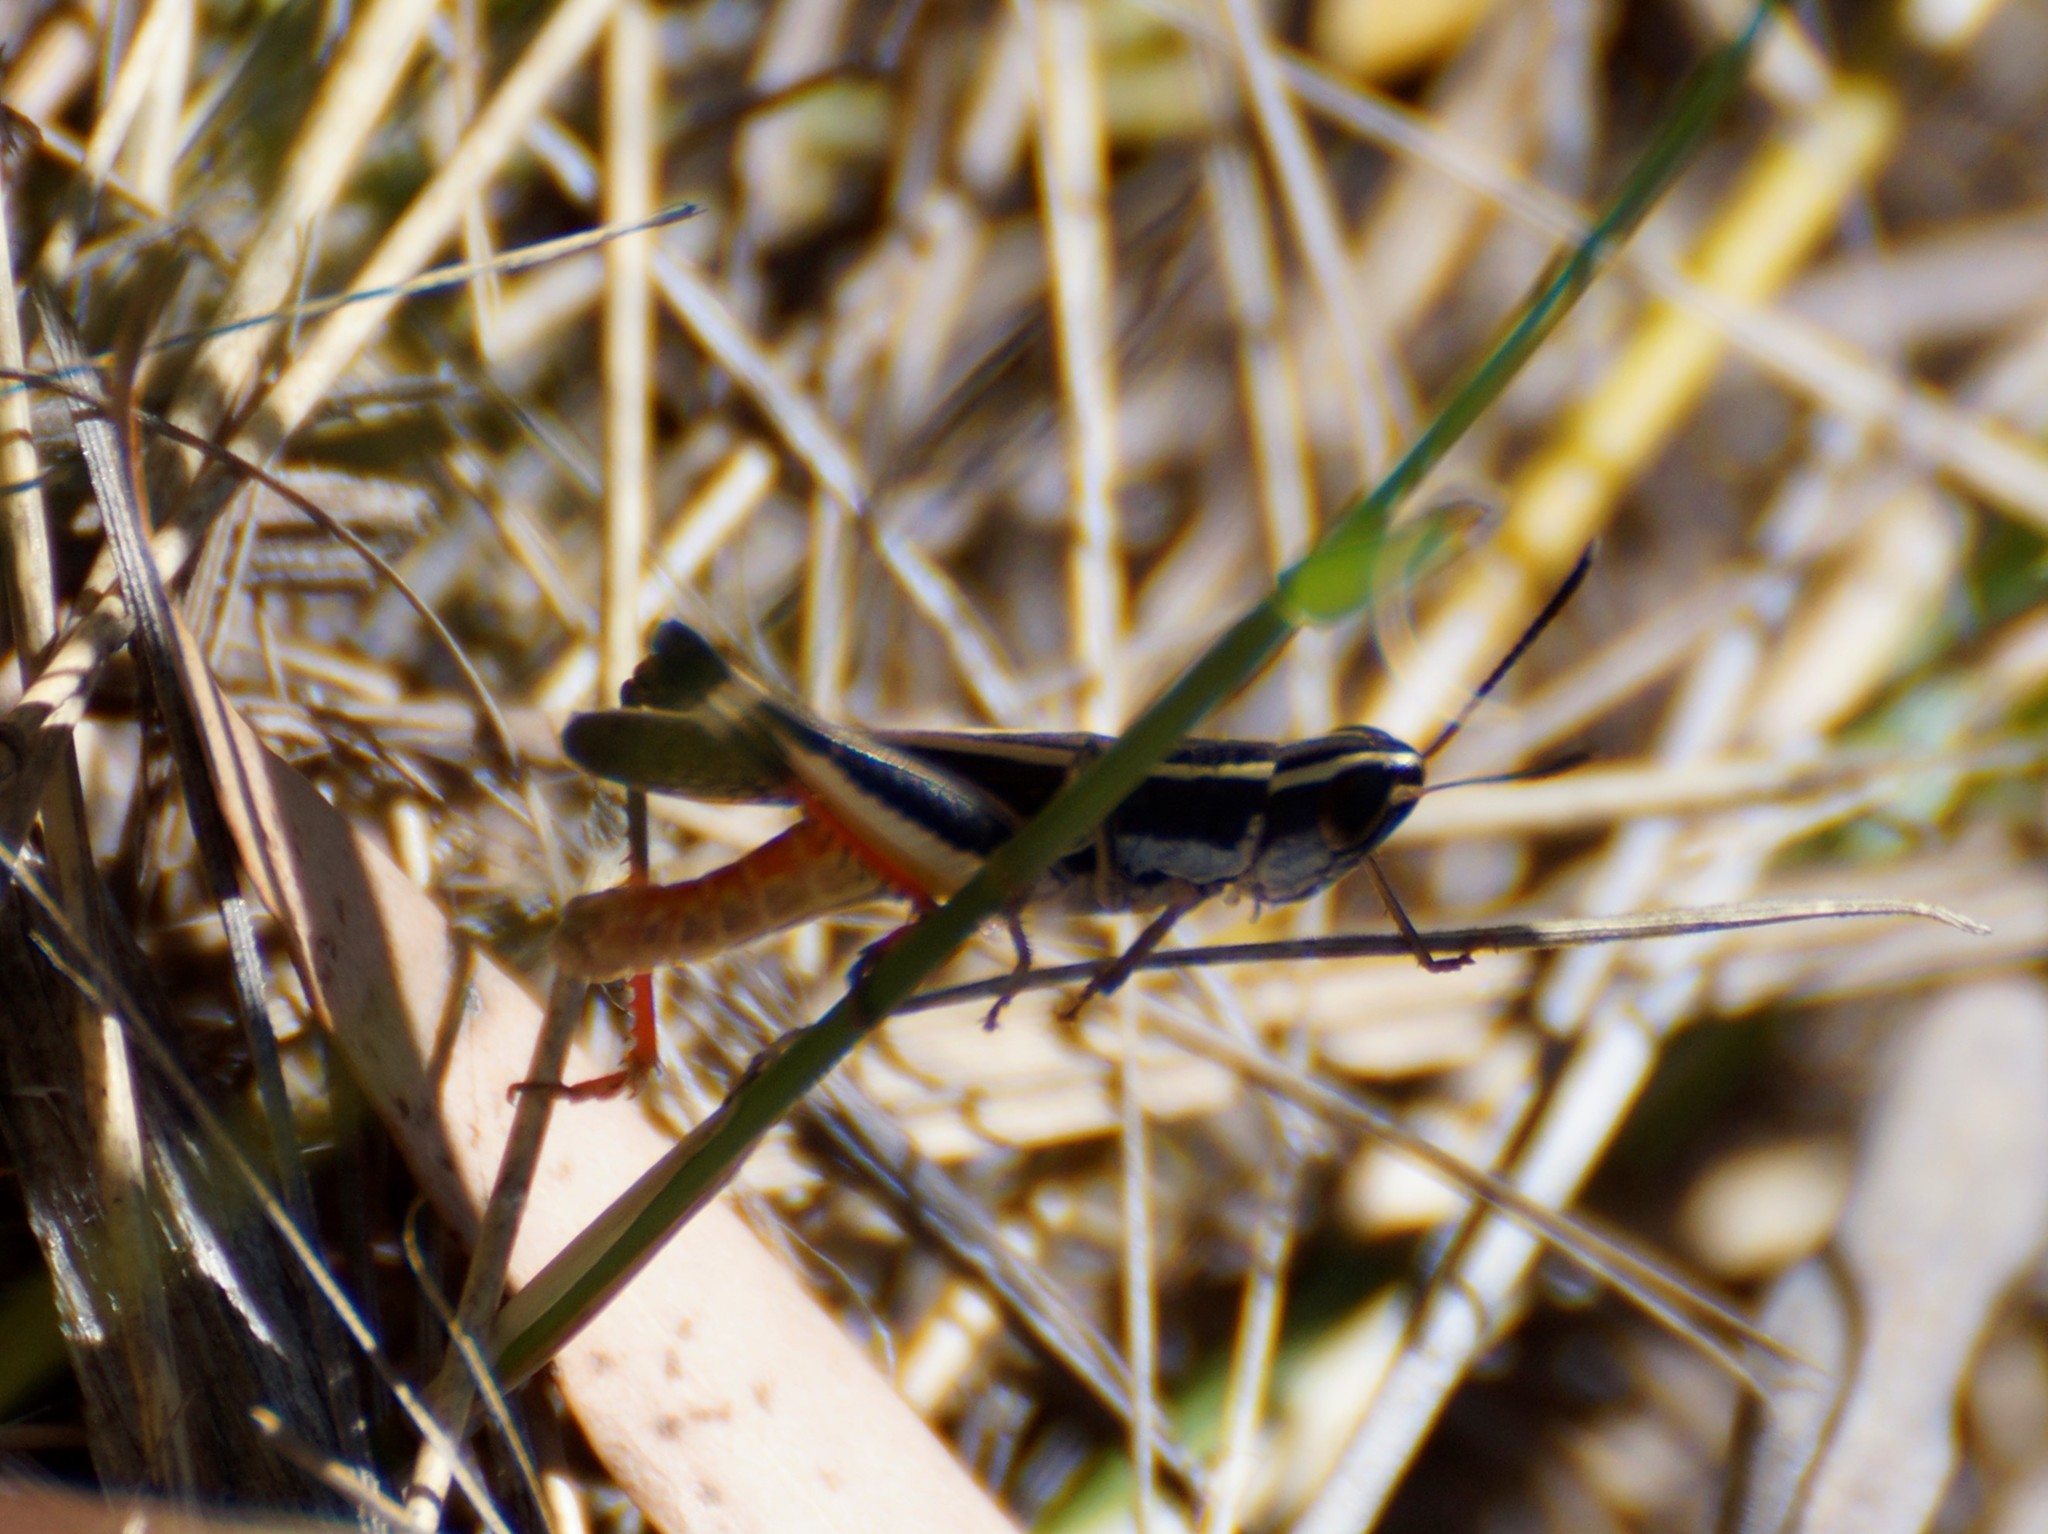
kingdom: Animalia
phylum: Arthropoda
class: Insecta
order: Orthoptera
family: Acrididae
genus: Macrotona
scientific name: Macrotona australis
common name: Common macrotona
